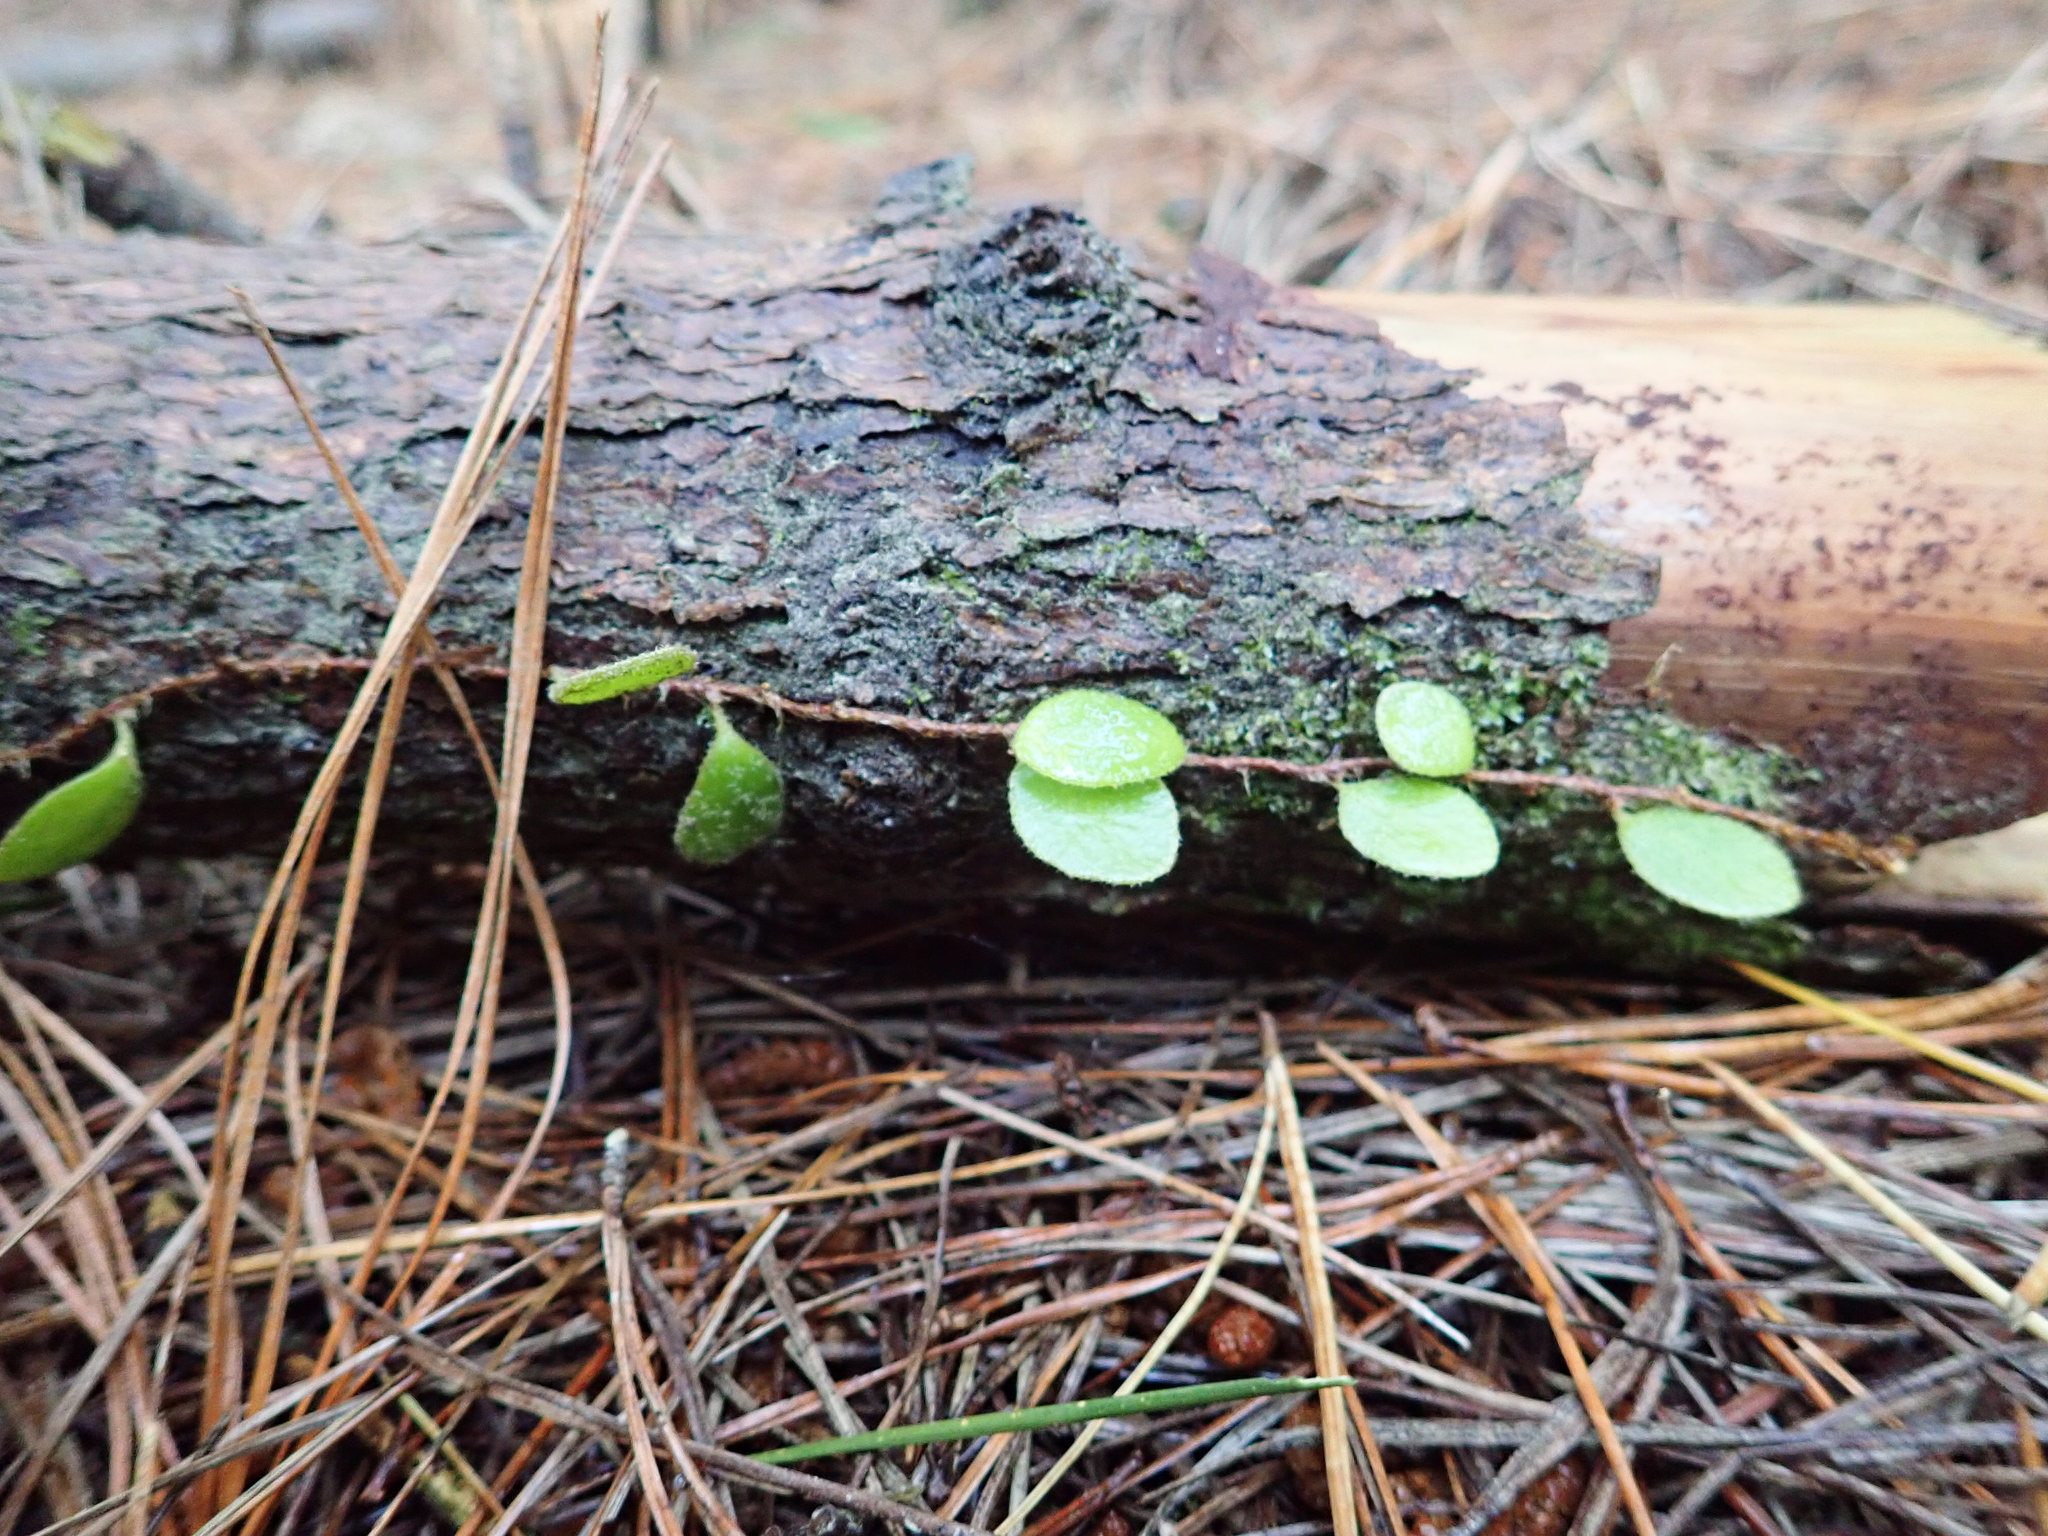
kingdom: Plantae
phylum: Tracheophyta
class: Polypodiopsida
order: Polypodiales
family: Polypodiaceae
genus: Pyrrosia
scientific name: Pyrrosia eleagnifolia
